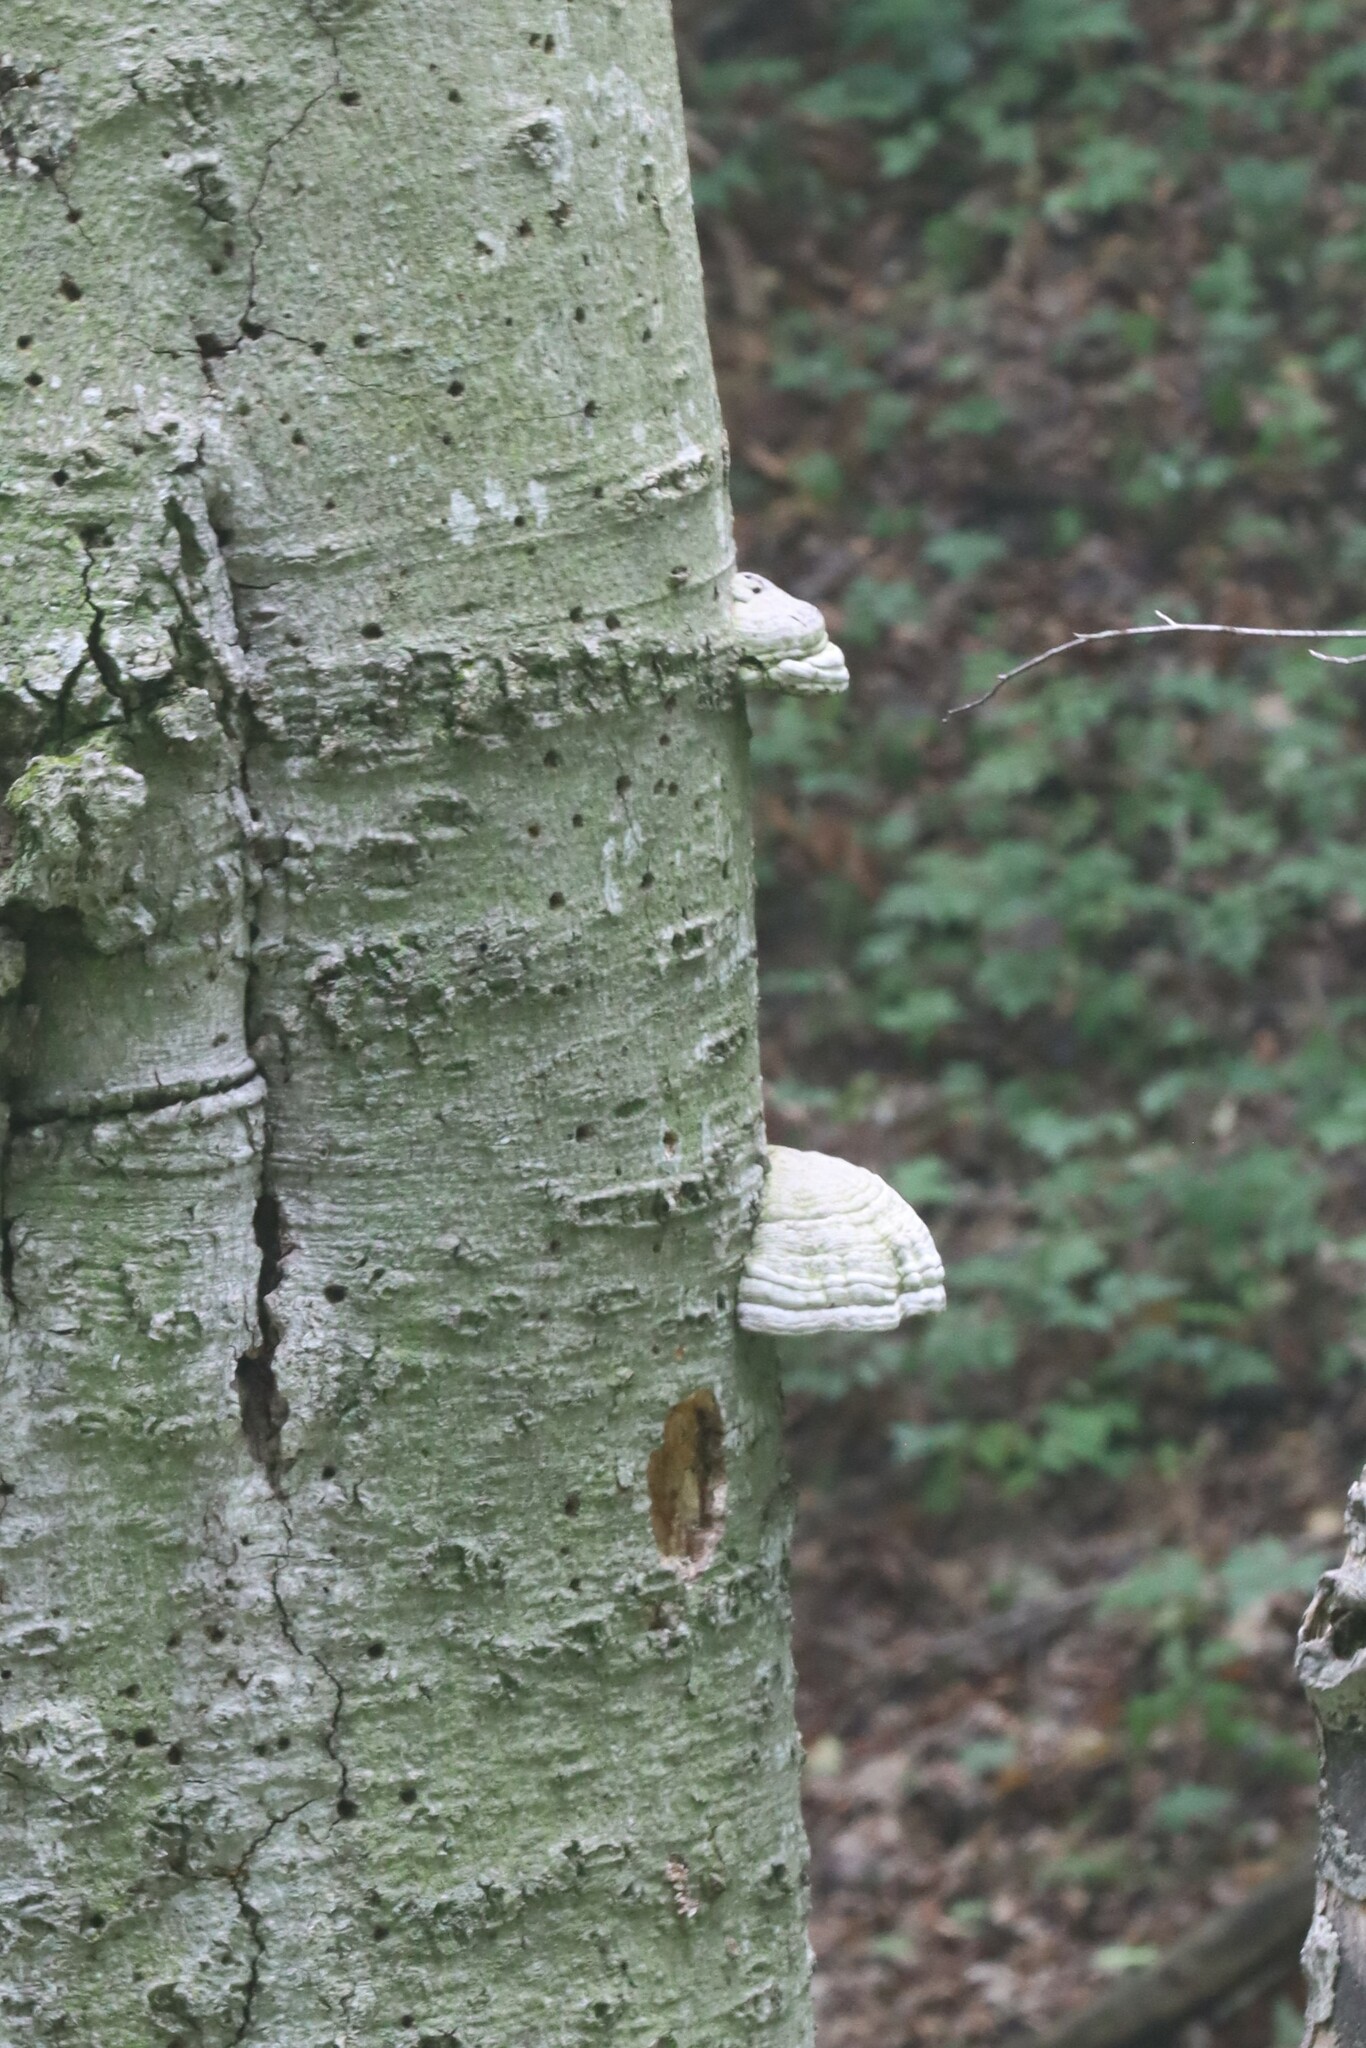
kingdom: Fungi
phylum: Basidiomycota
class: Agaricomycetes
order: Polyporales
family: Polyporaceae
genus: Fomes
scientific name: Fomes fomentarius
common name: Hoof fungus
